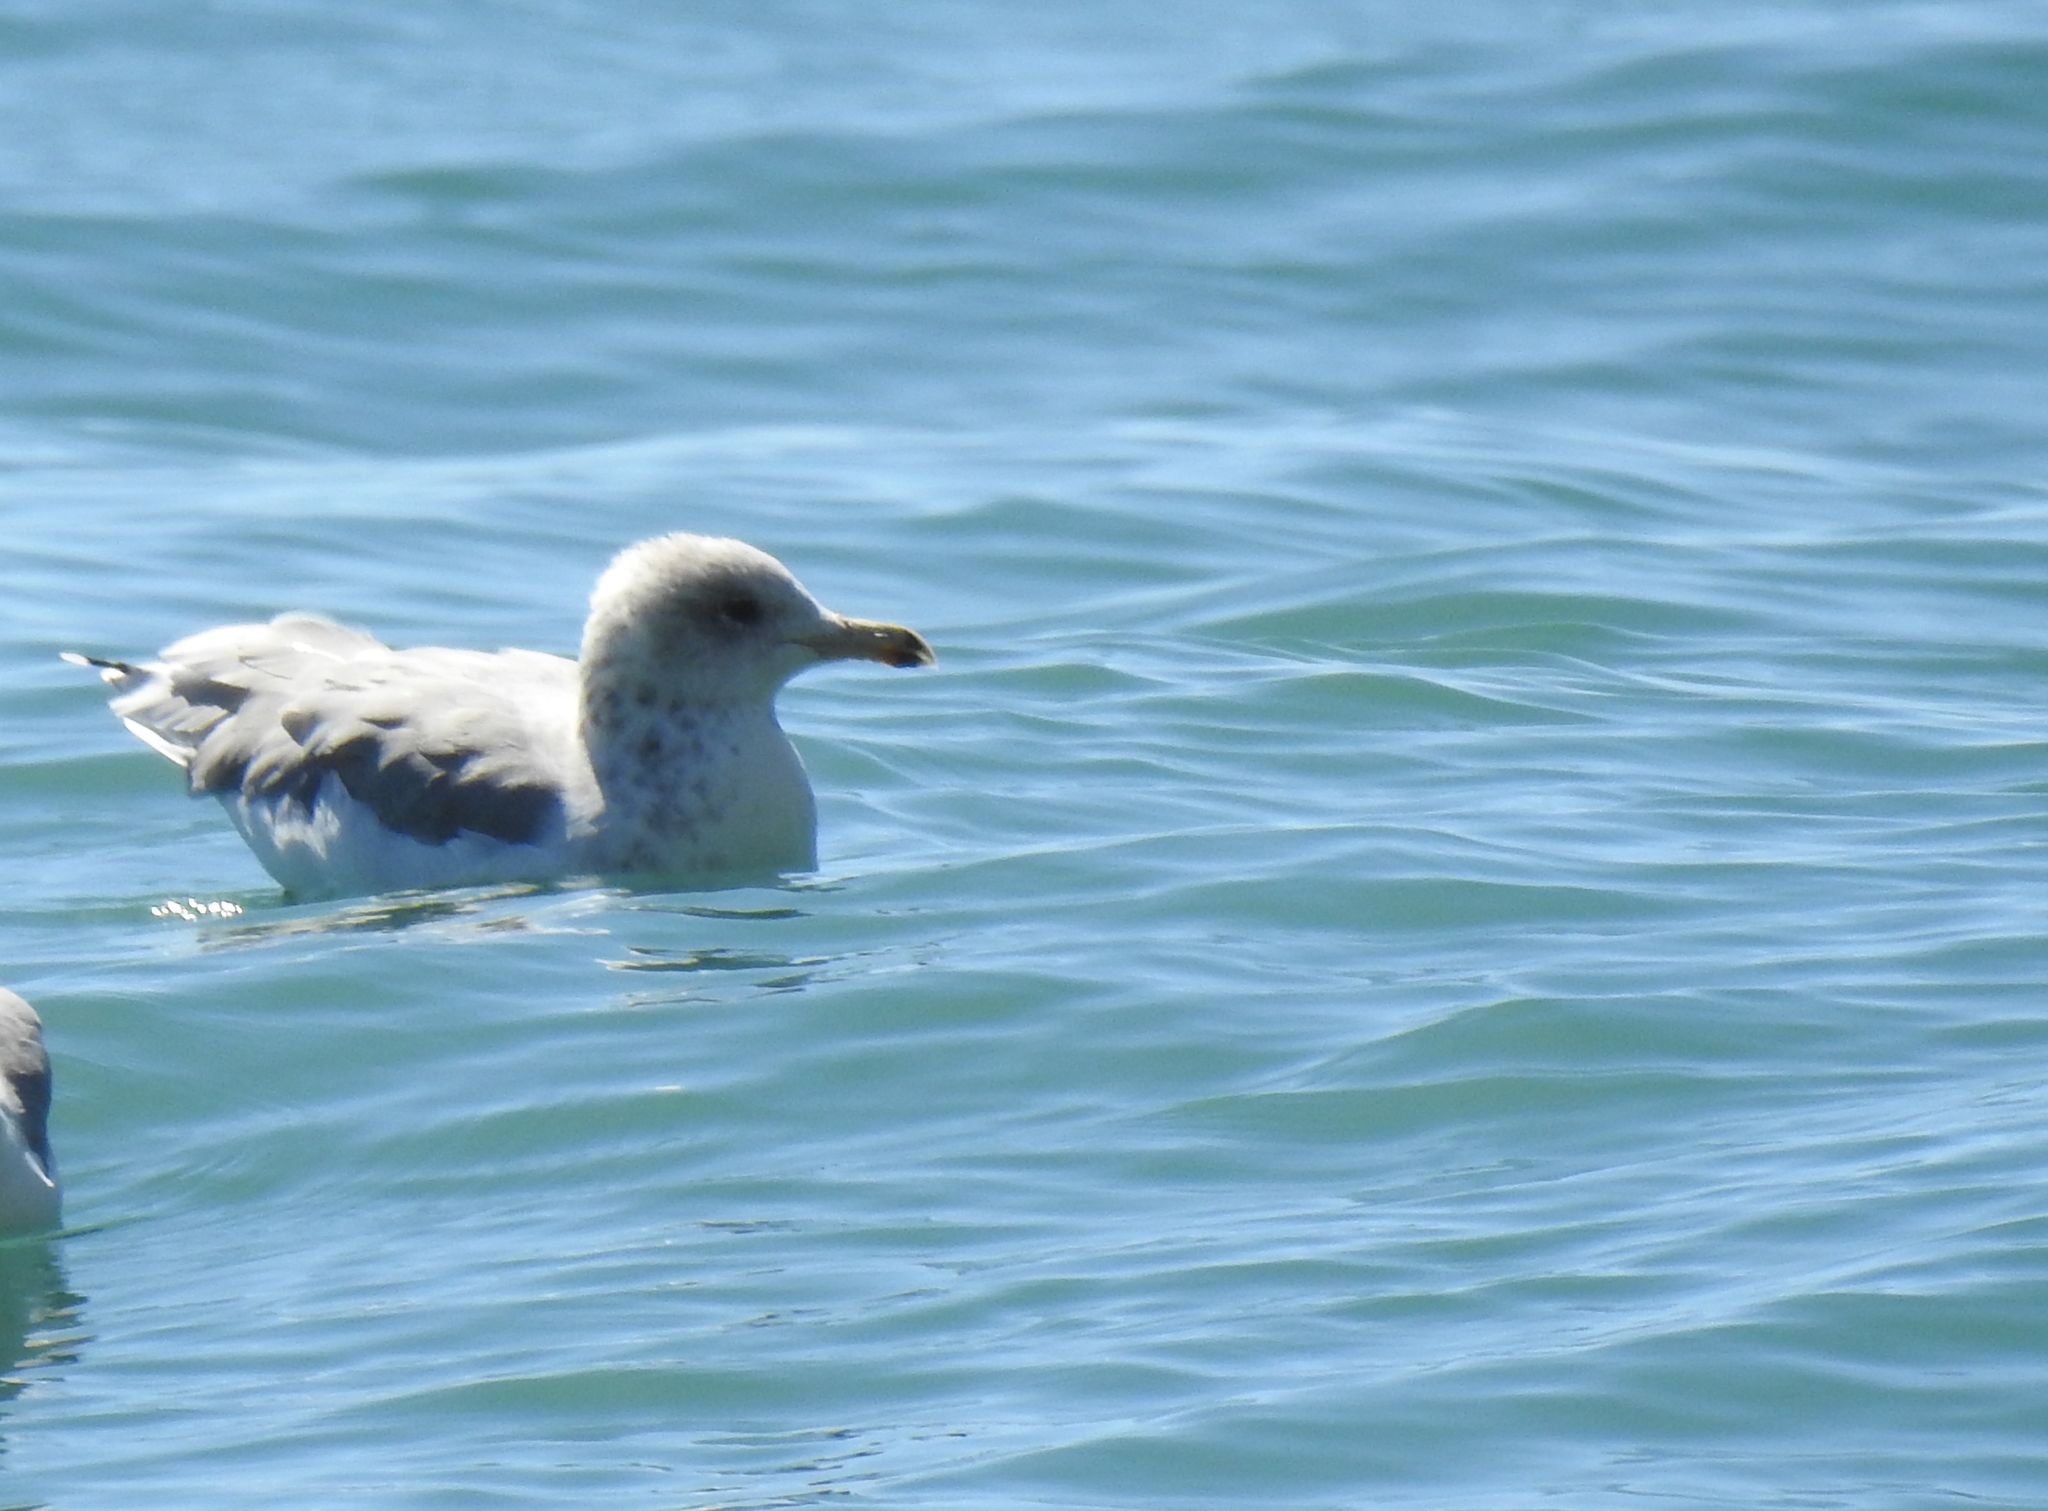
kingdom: Animalia
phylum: Chordata
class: Aves
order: Charadriiformes
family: Laridae
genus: Larus
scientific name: Larus californicus
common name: California gull
